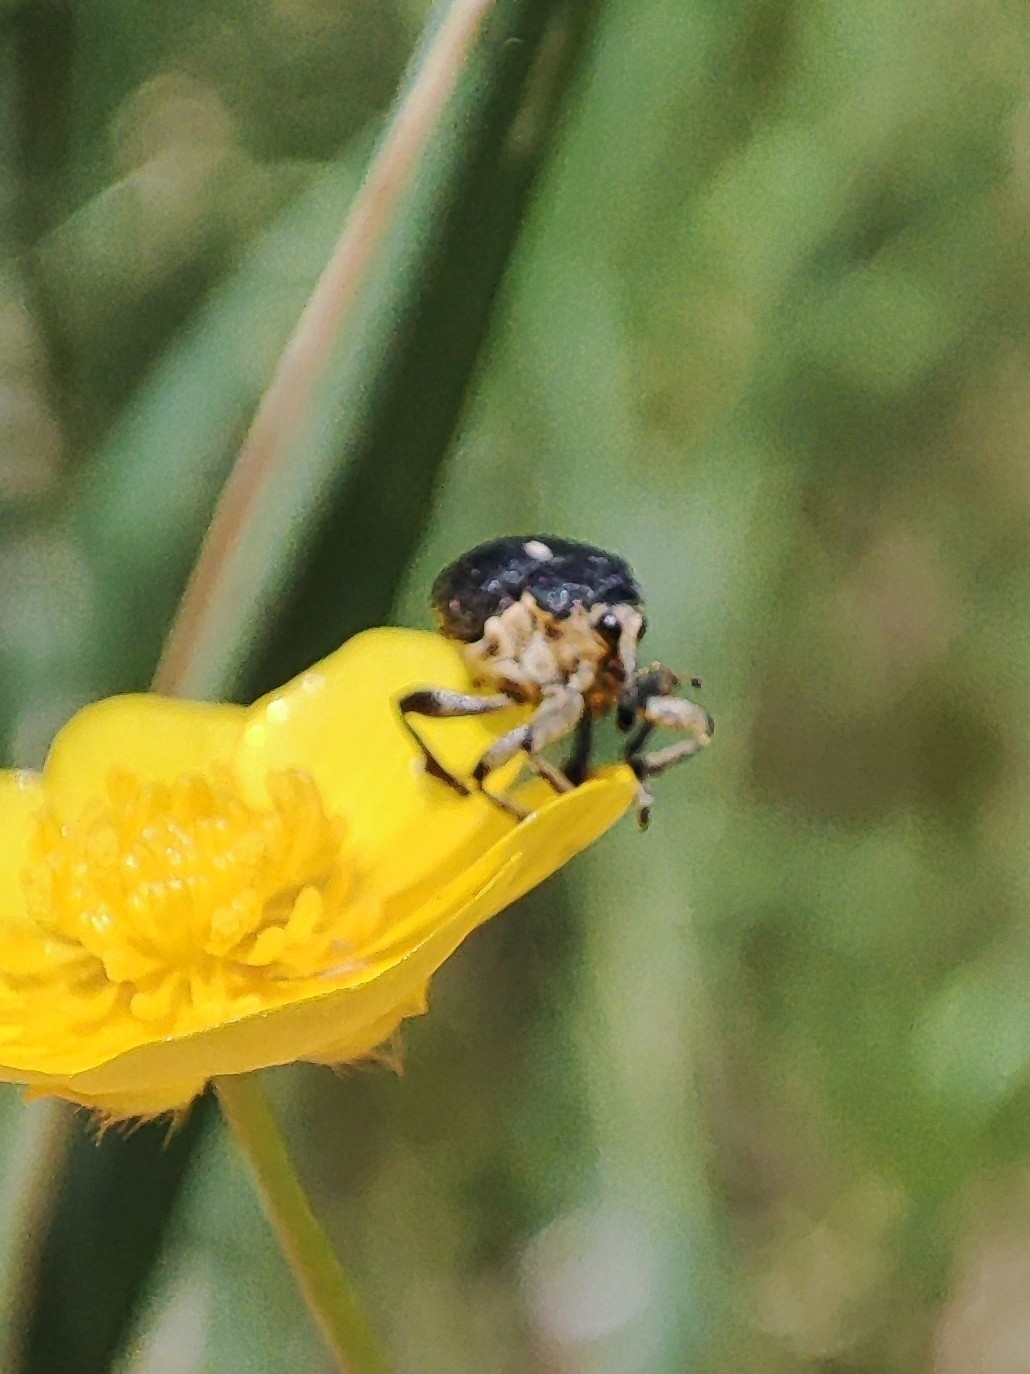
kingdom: Animalia
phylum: Arthropoda
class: Insecta
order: Coleoptera
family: Curculionidae
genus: Mononychus
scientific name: Mononychus punctumalbum
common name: Iris weevil
